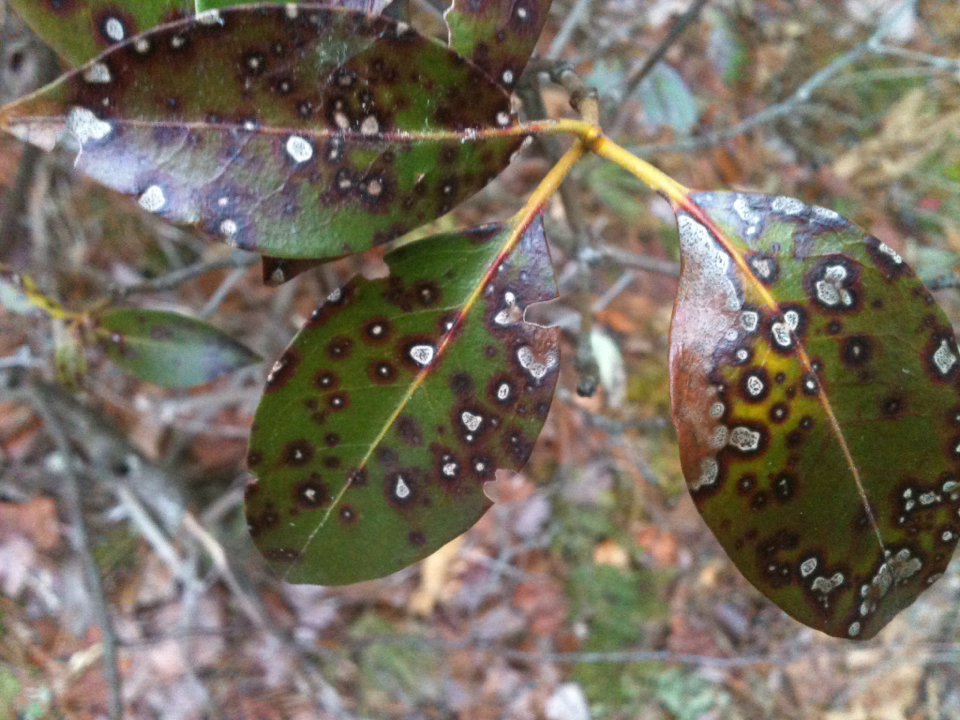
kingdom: Plantae
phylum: Tracheophyta
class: Magnoliopsida
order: Ericales
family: Ericaceae
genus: Kalmia
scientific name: Kalmia latifolia
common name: Mountain-laurel
